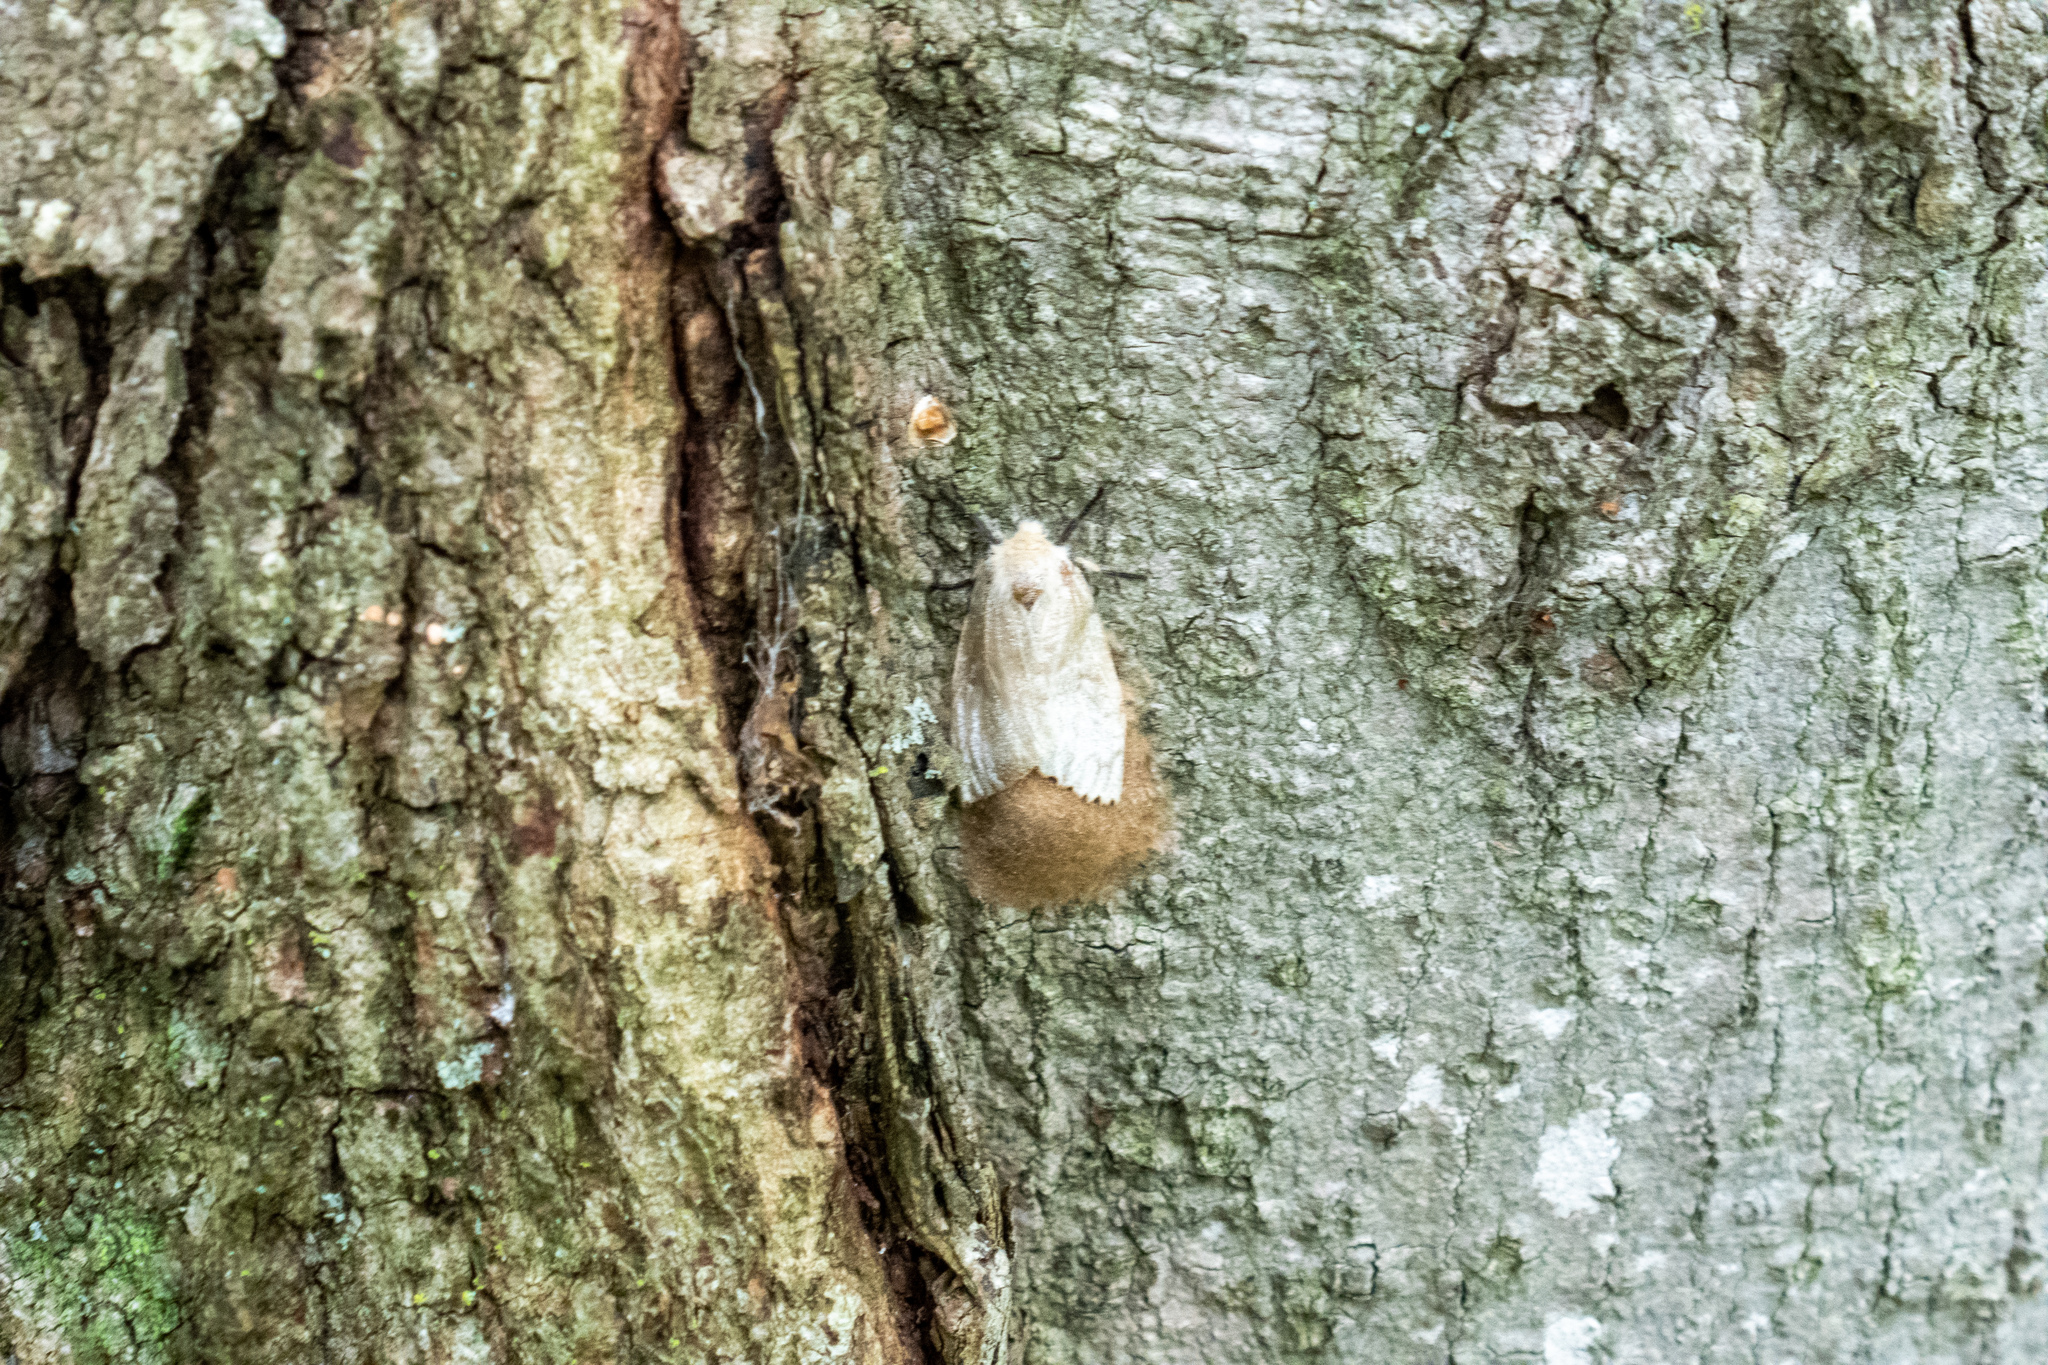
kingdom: Animalia
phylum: Arthropoda
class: Insecta
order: Lepidoptera
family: Erebidae
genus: Lymantria
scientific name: Lymantria dispar
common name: Gypsy moth
